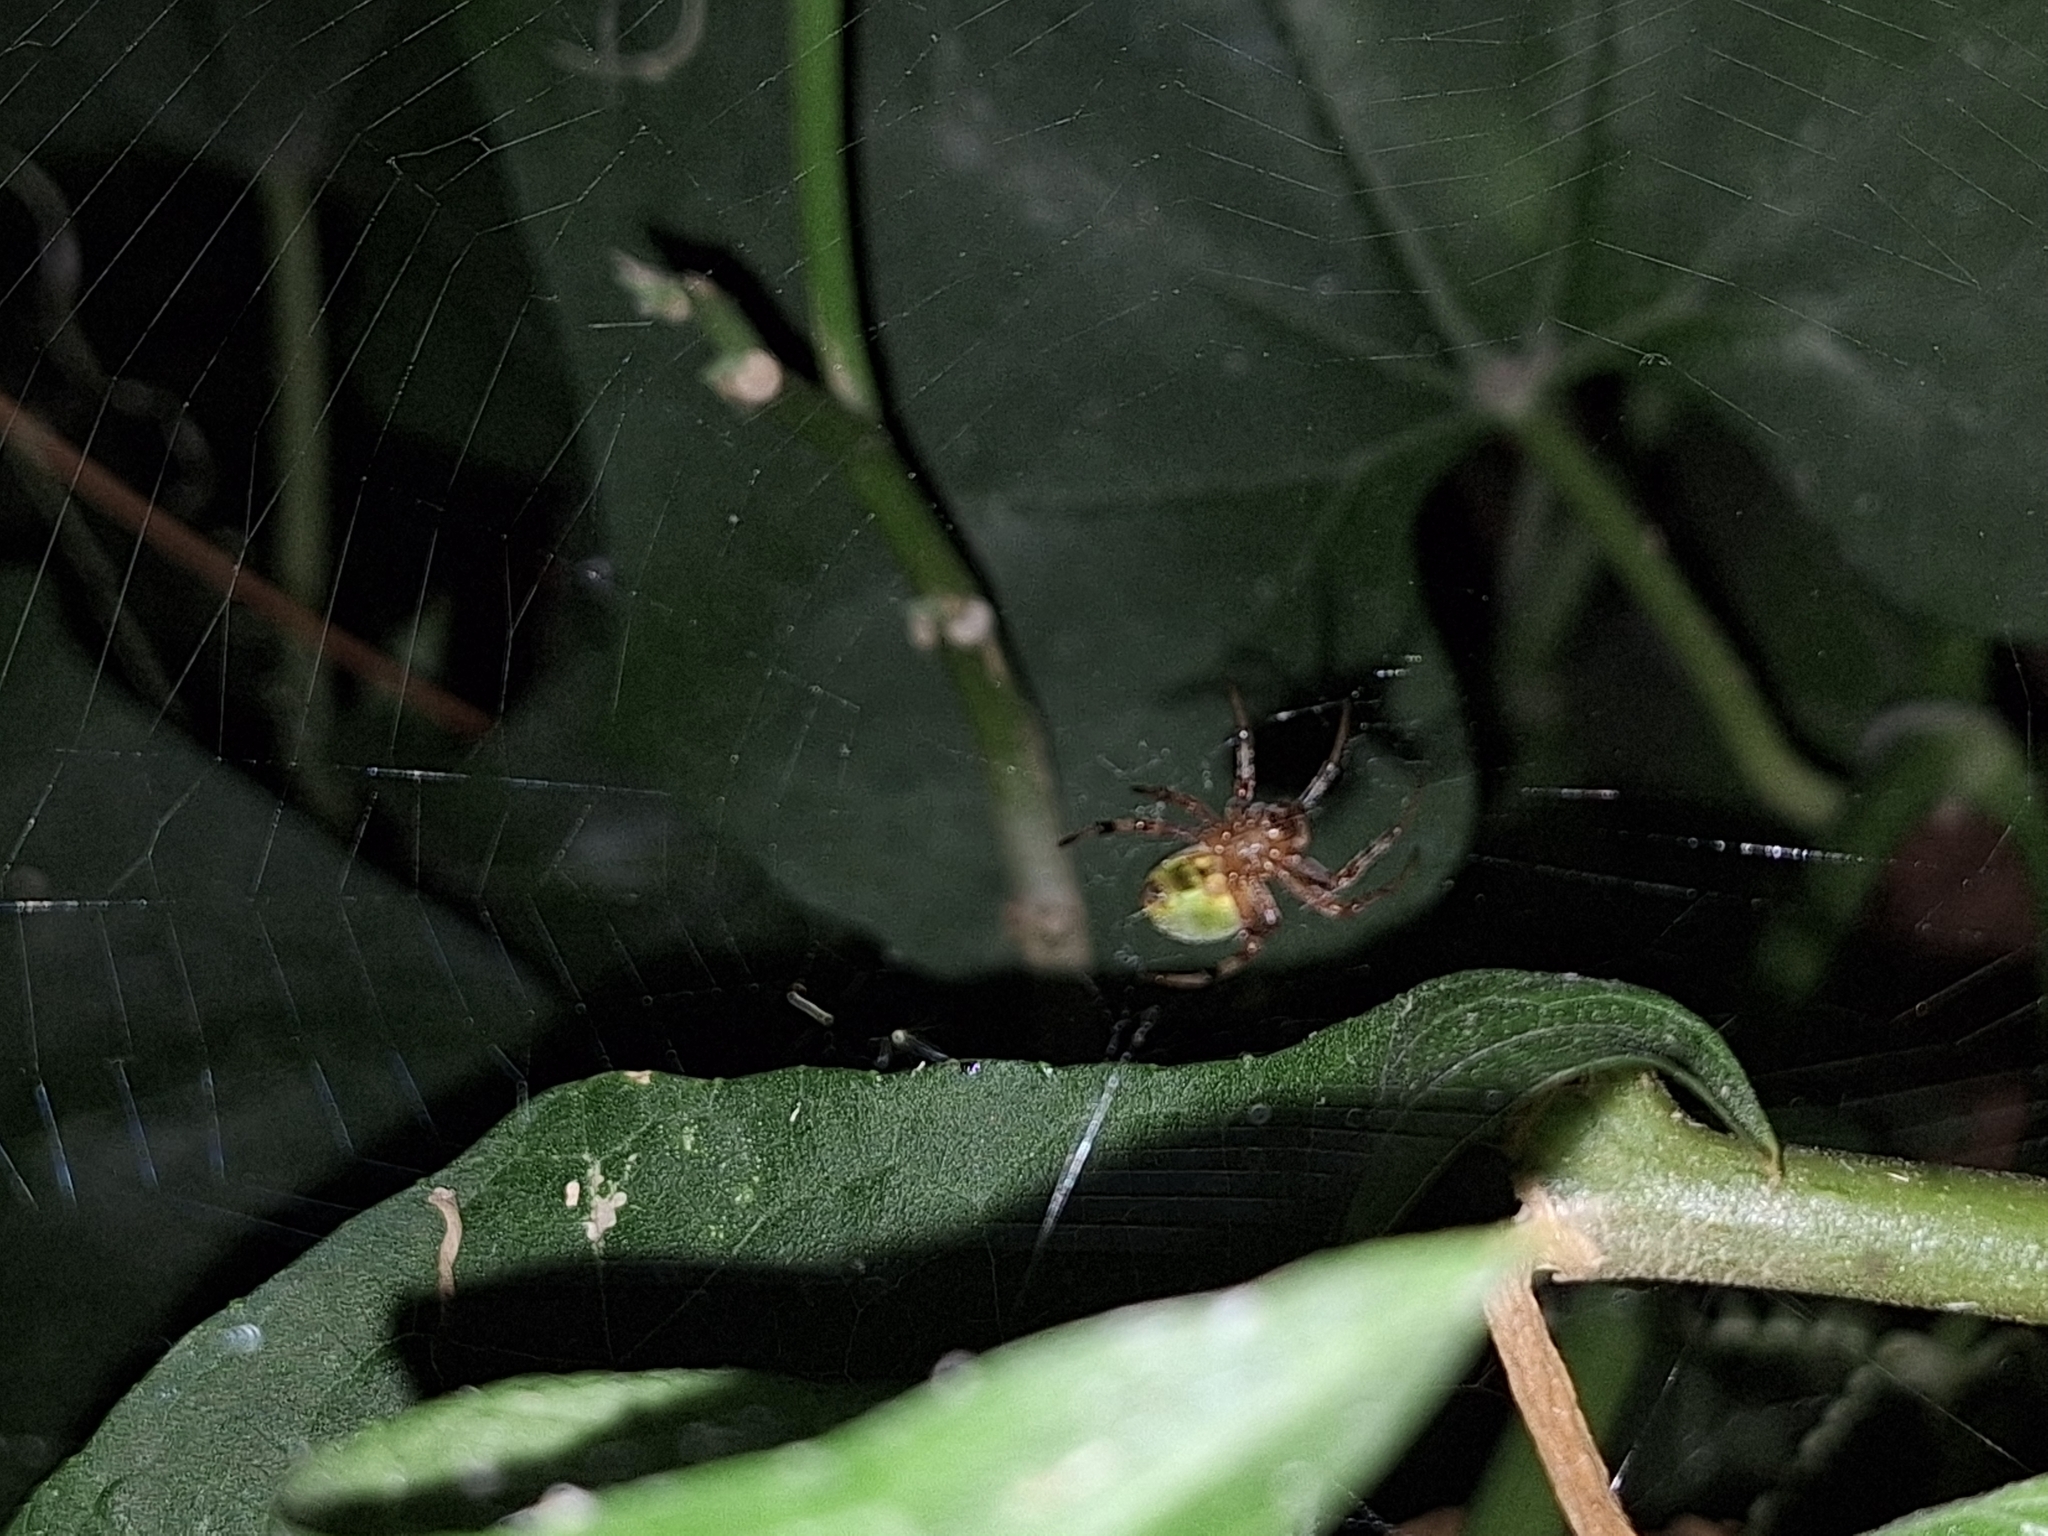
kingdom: Animalia
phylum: Arthropoda
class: Arachnida
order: Araneae
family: Araneidae
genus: Araneus
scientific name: Araneus lathyrinus
